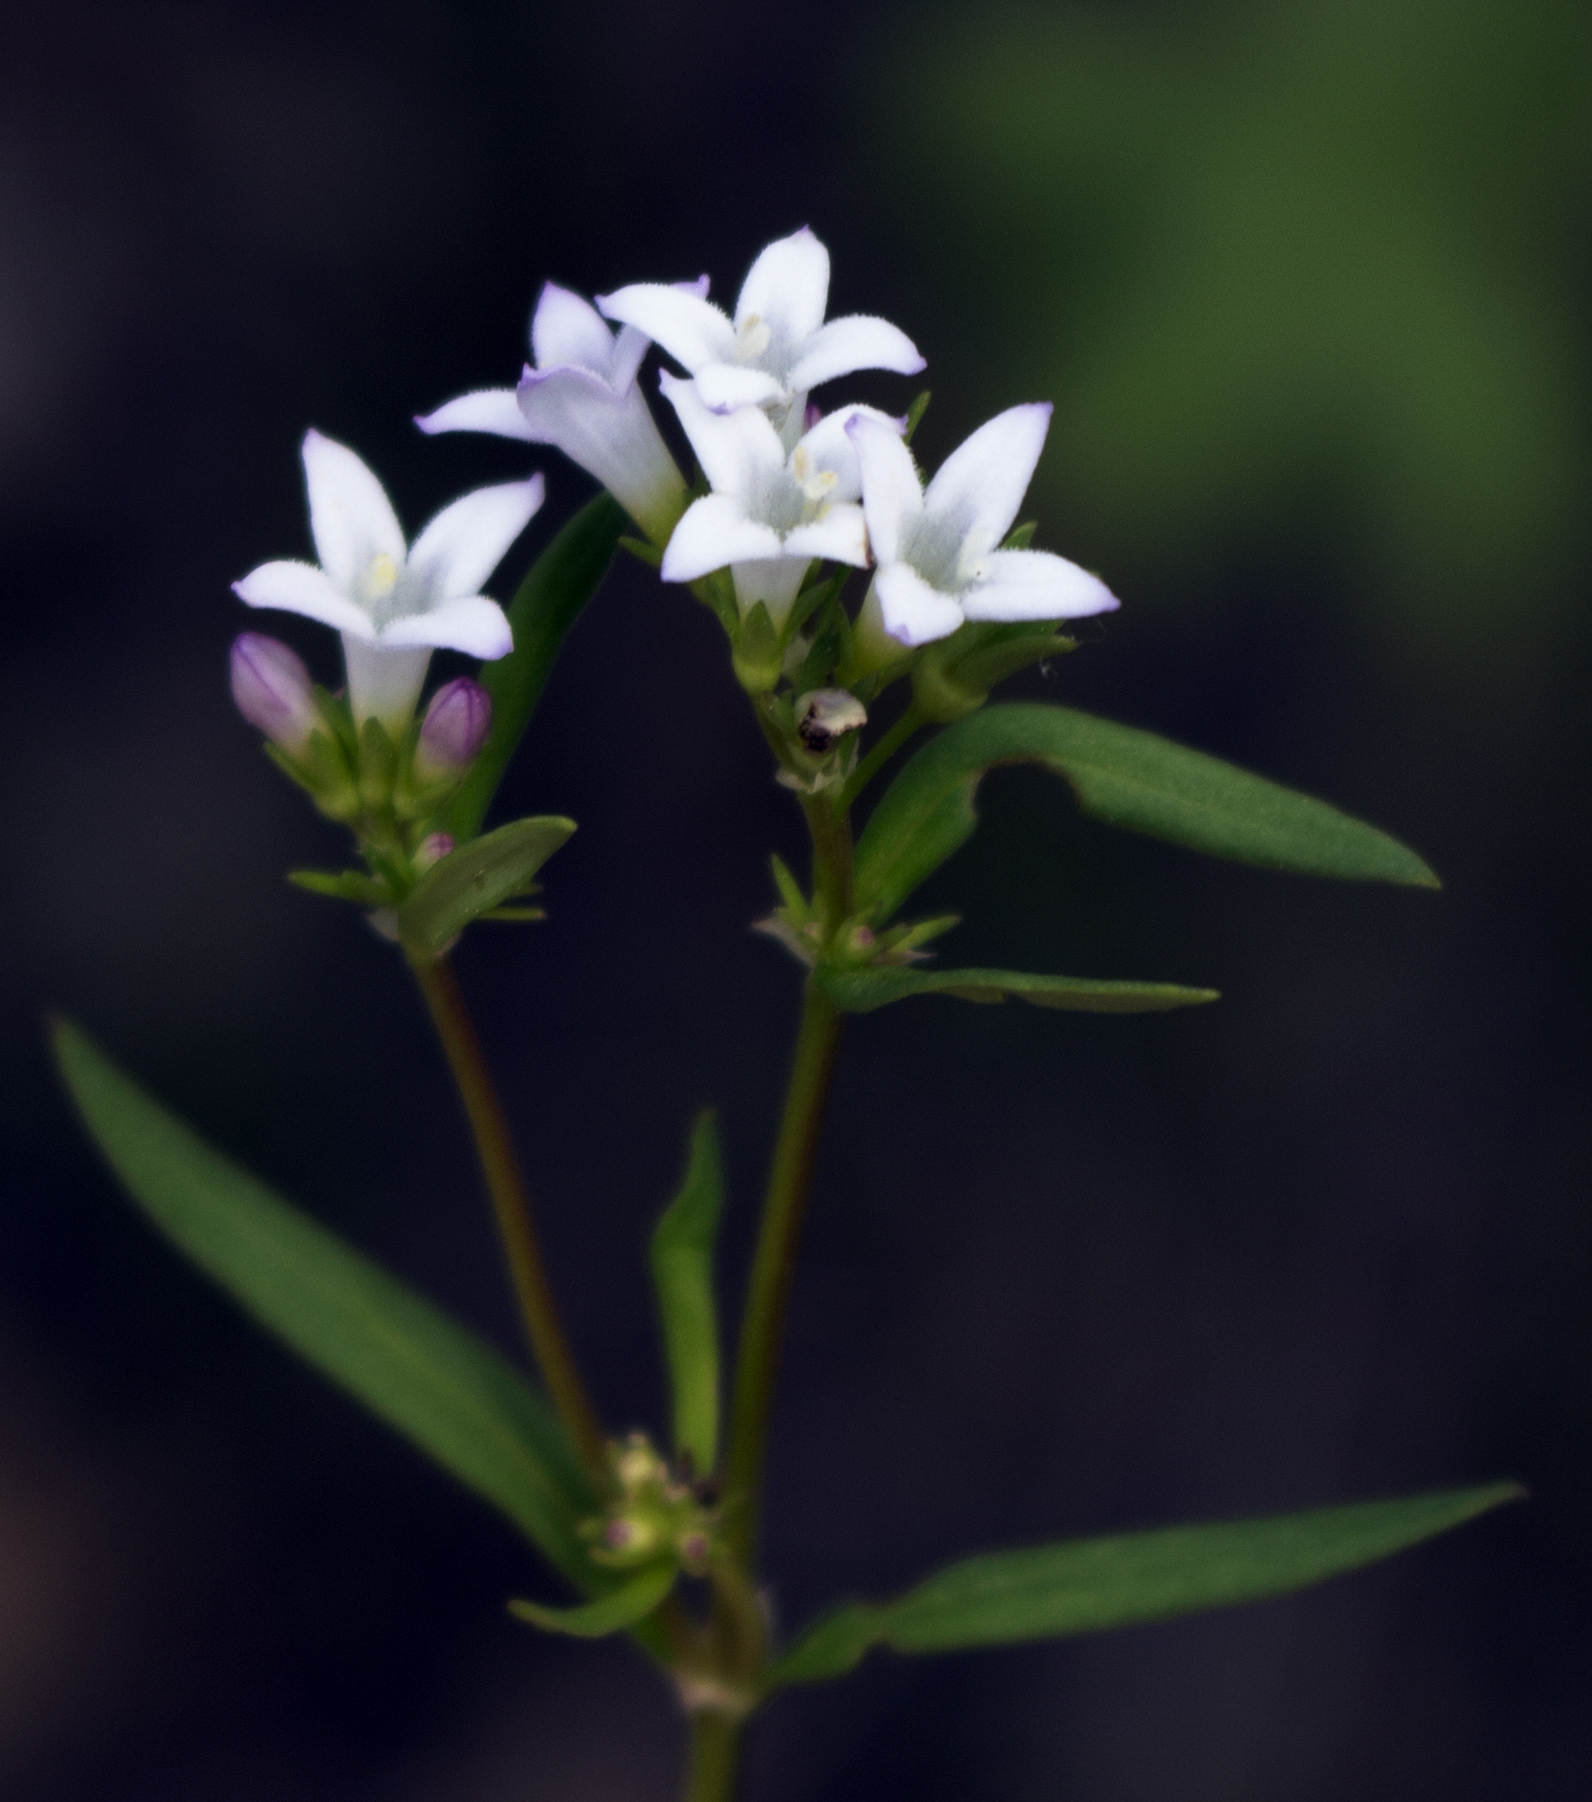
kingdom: Plantae
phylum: Tracheophyta
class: Magnoliopsida
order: Gentianales
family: Rubiaceae
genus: Houstonia
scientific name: Houstonia longifolia
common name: Long-leaved bluets
